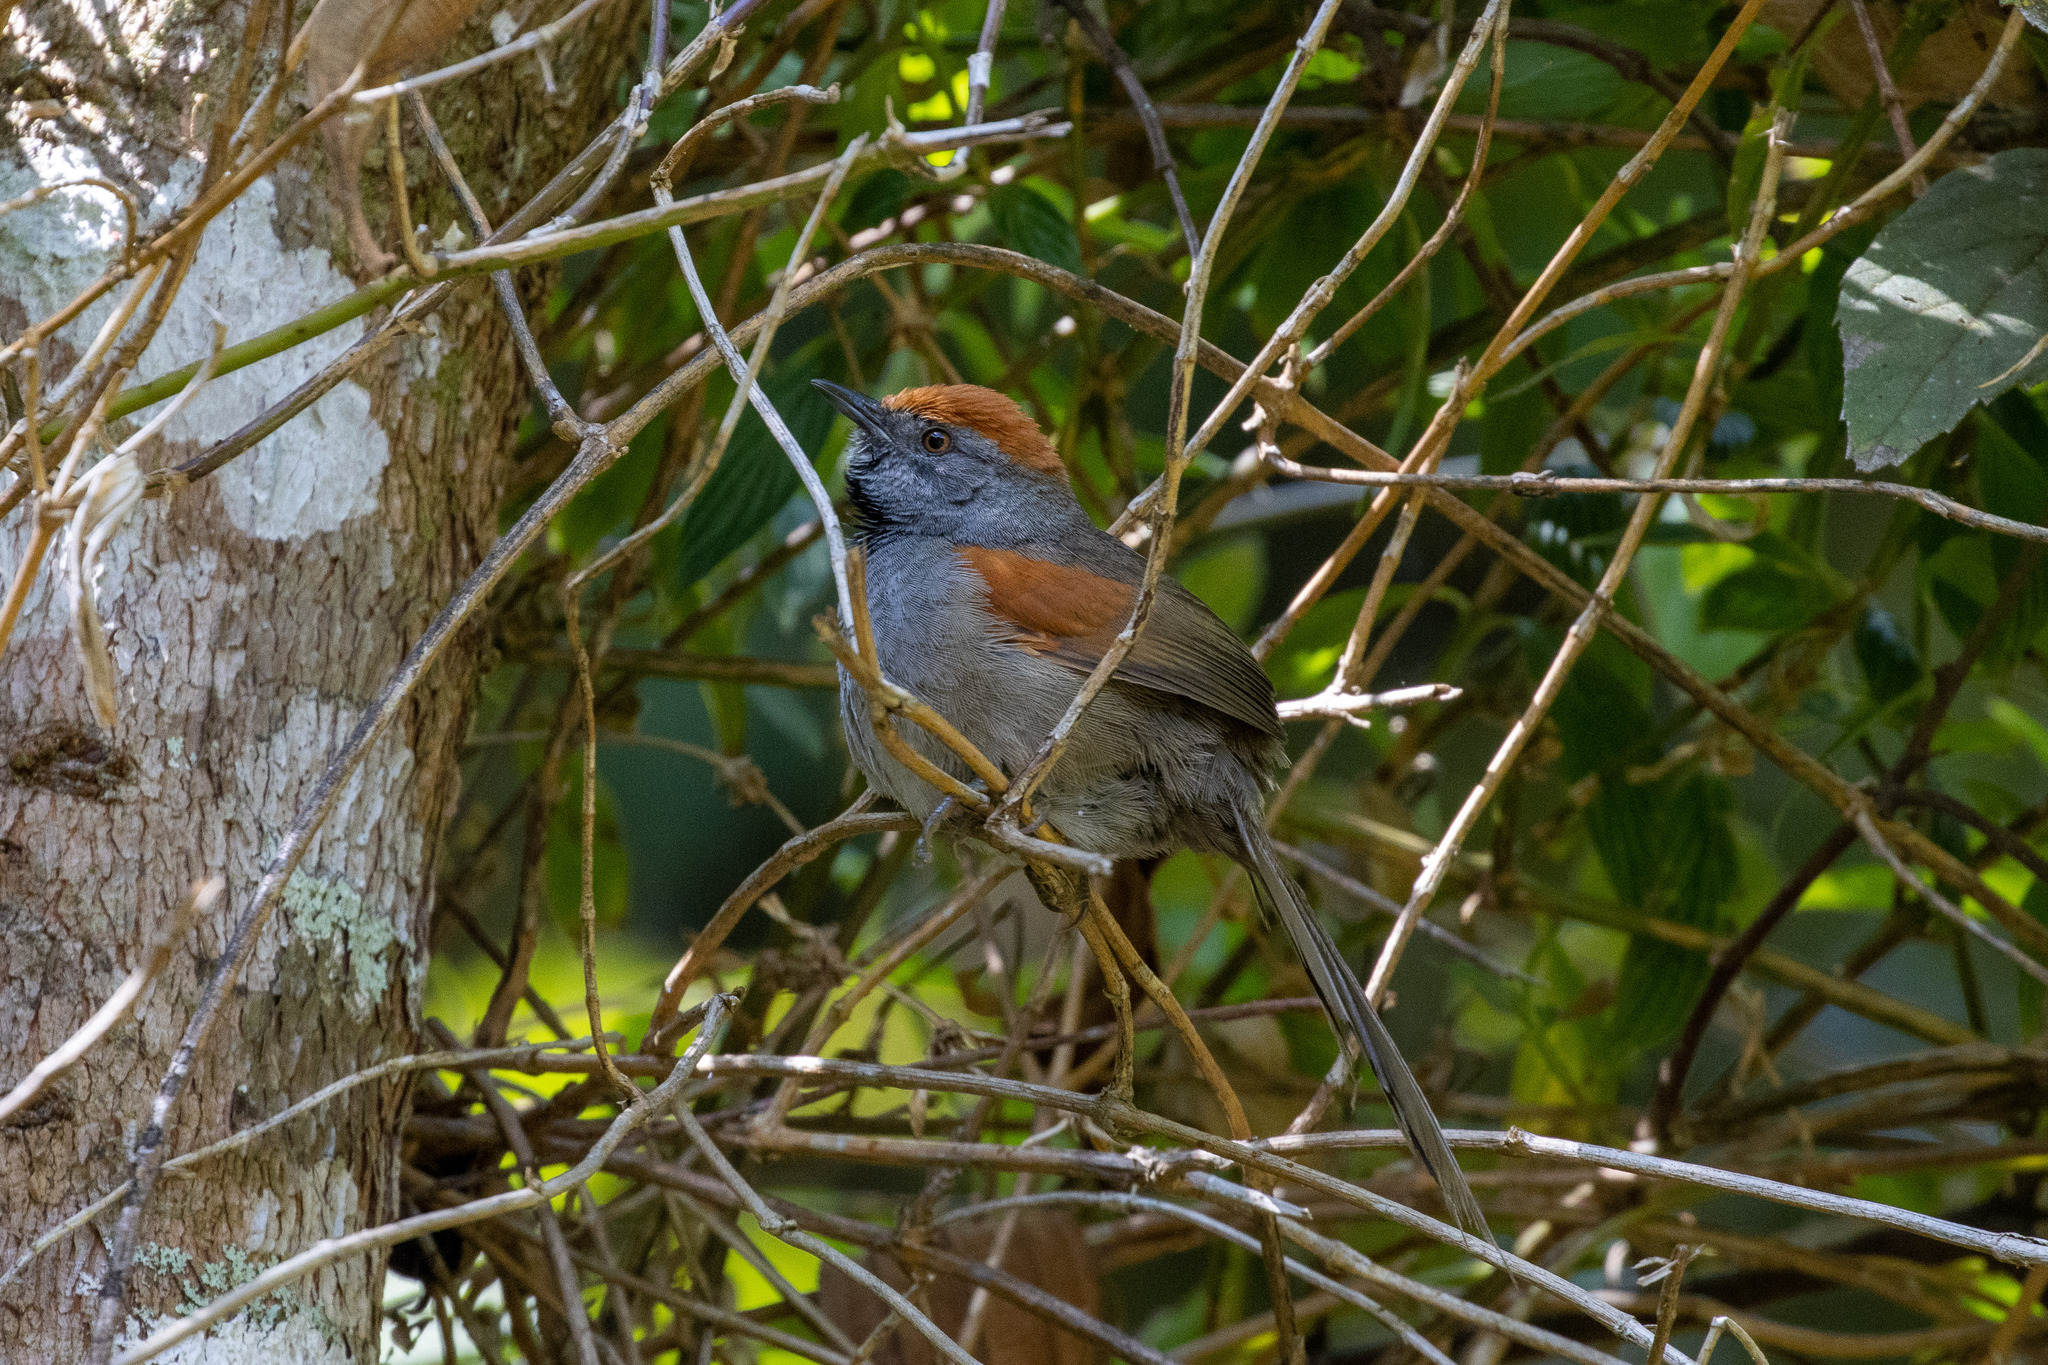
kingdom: Animalia
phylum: Chordata
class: Aves
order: Passeriformes
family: Furnariidae
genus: Synallaxis
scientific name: Synallaxis spixi
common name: Spix's spinetail
